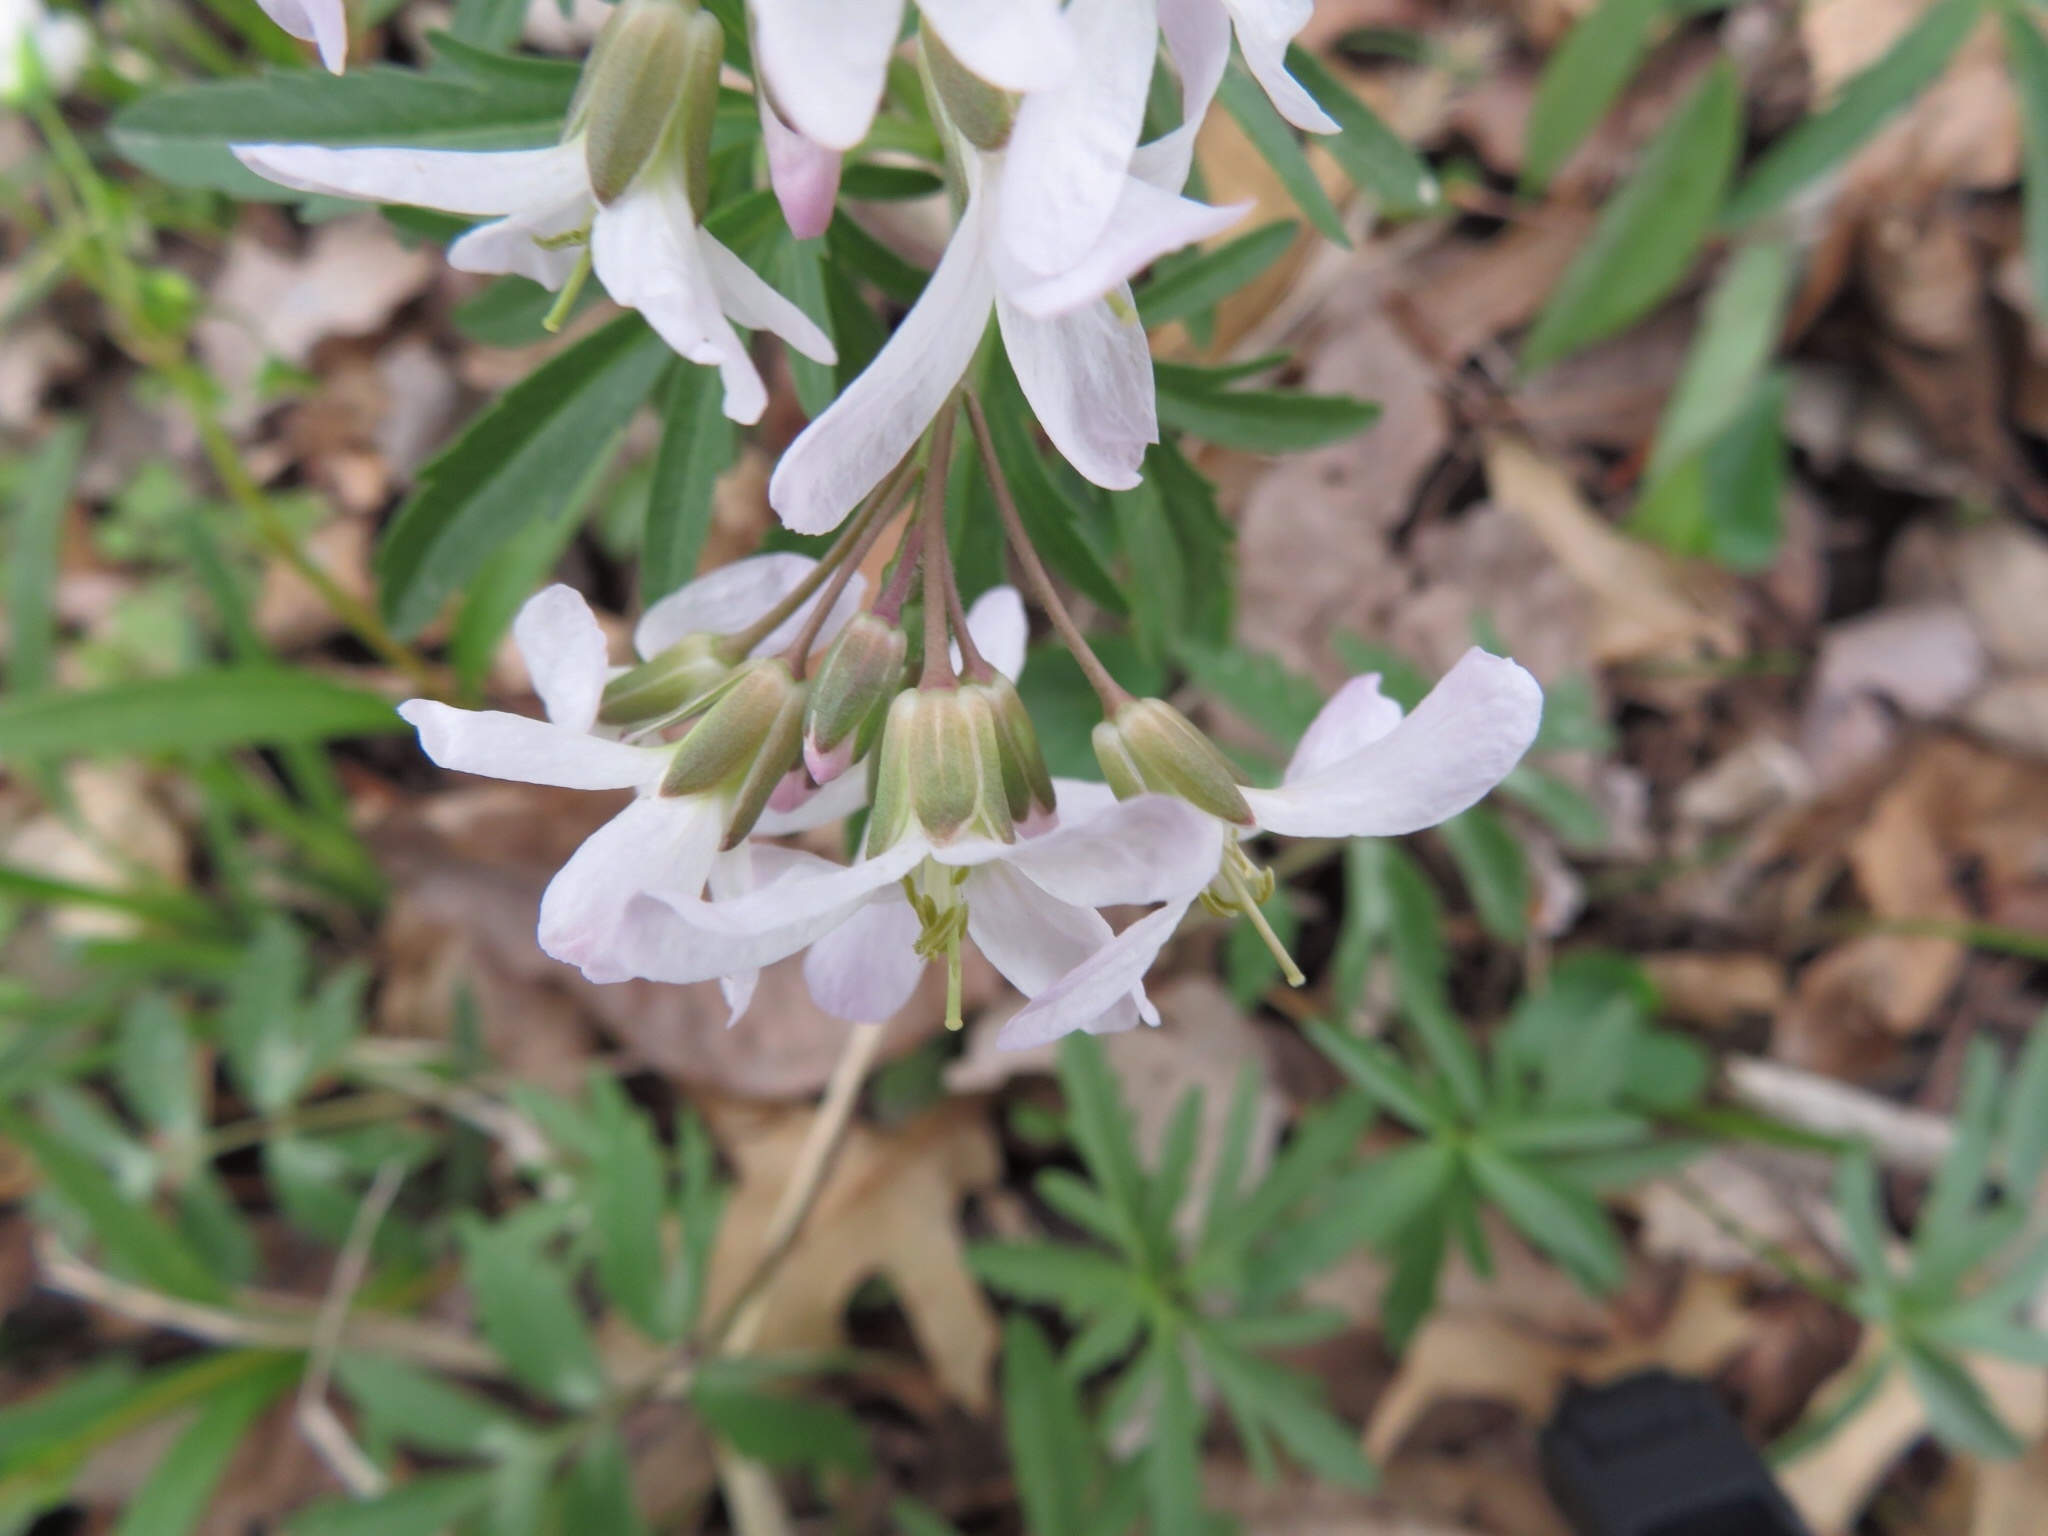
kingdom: Plantae
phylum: Tracheophyta
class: Magnoliopsida
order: Brassicales
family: Brassicaceae
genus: Cardamine
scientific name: Cardamine concatenata
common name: Cut-leaf toothcup
